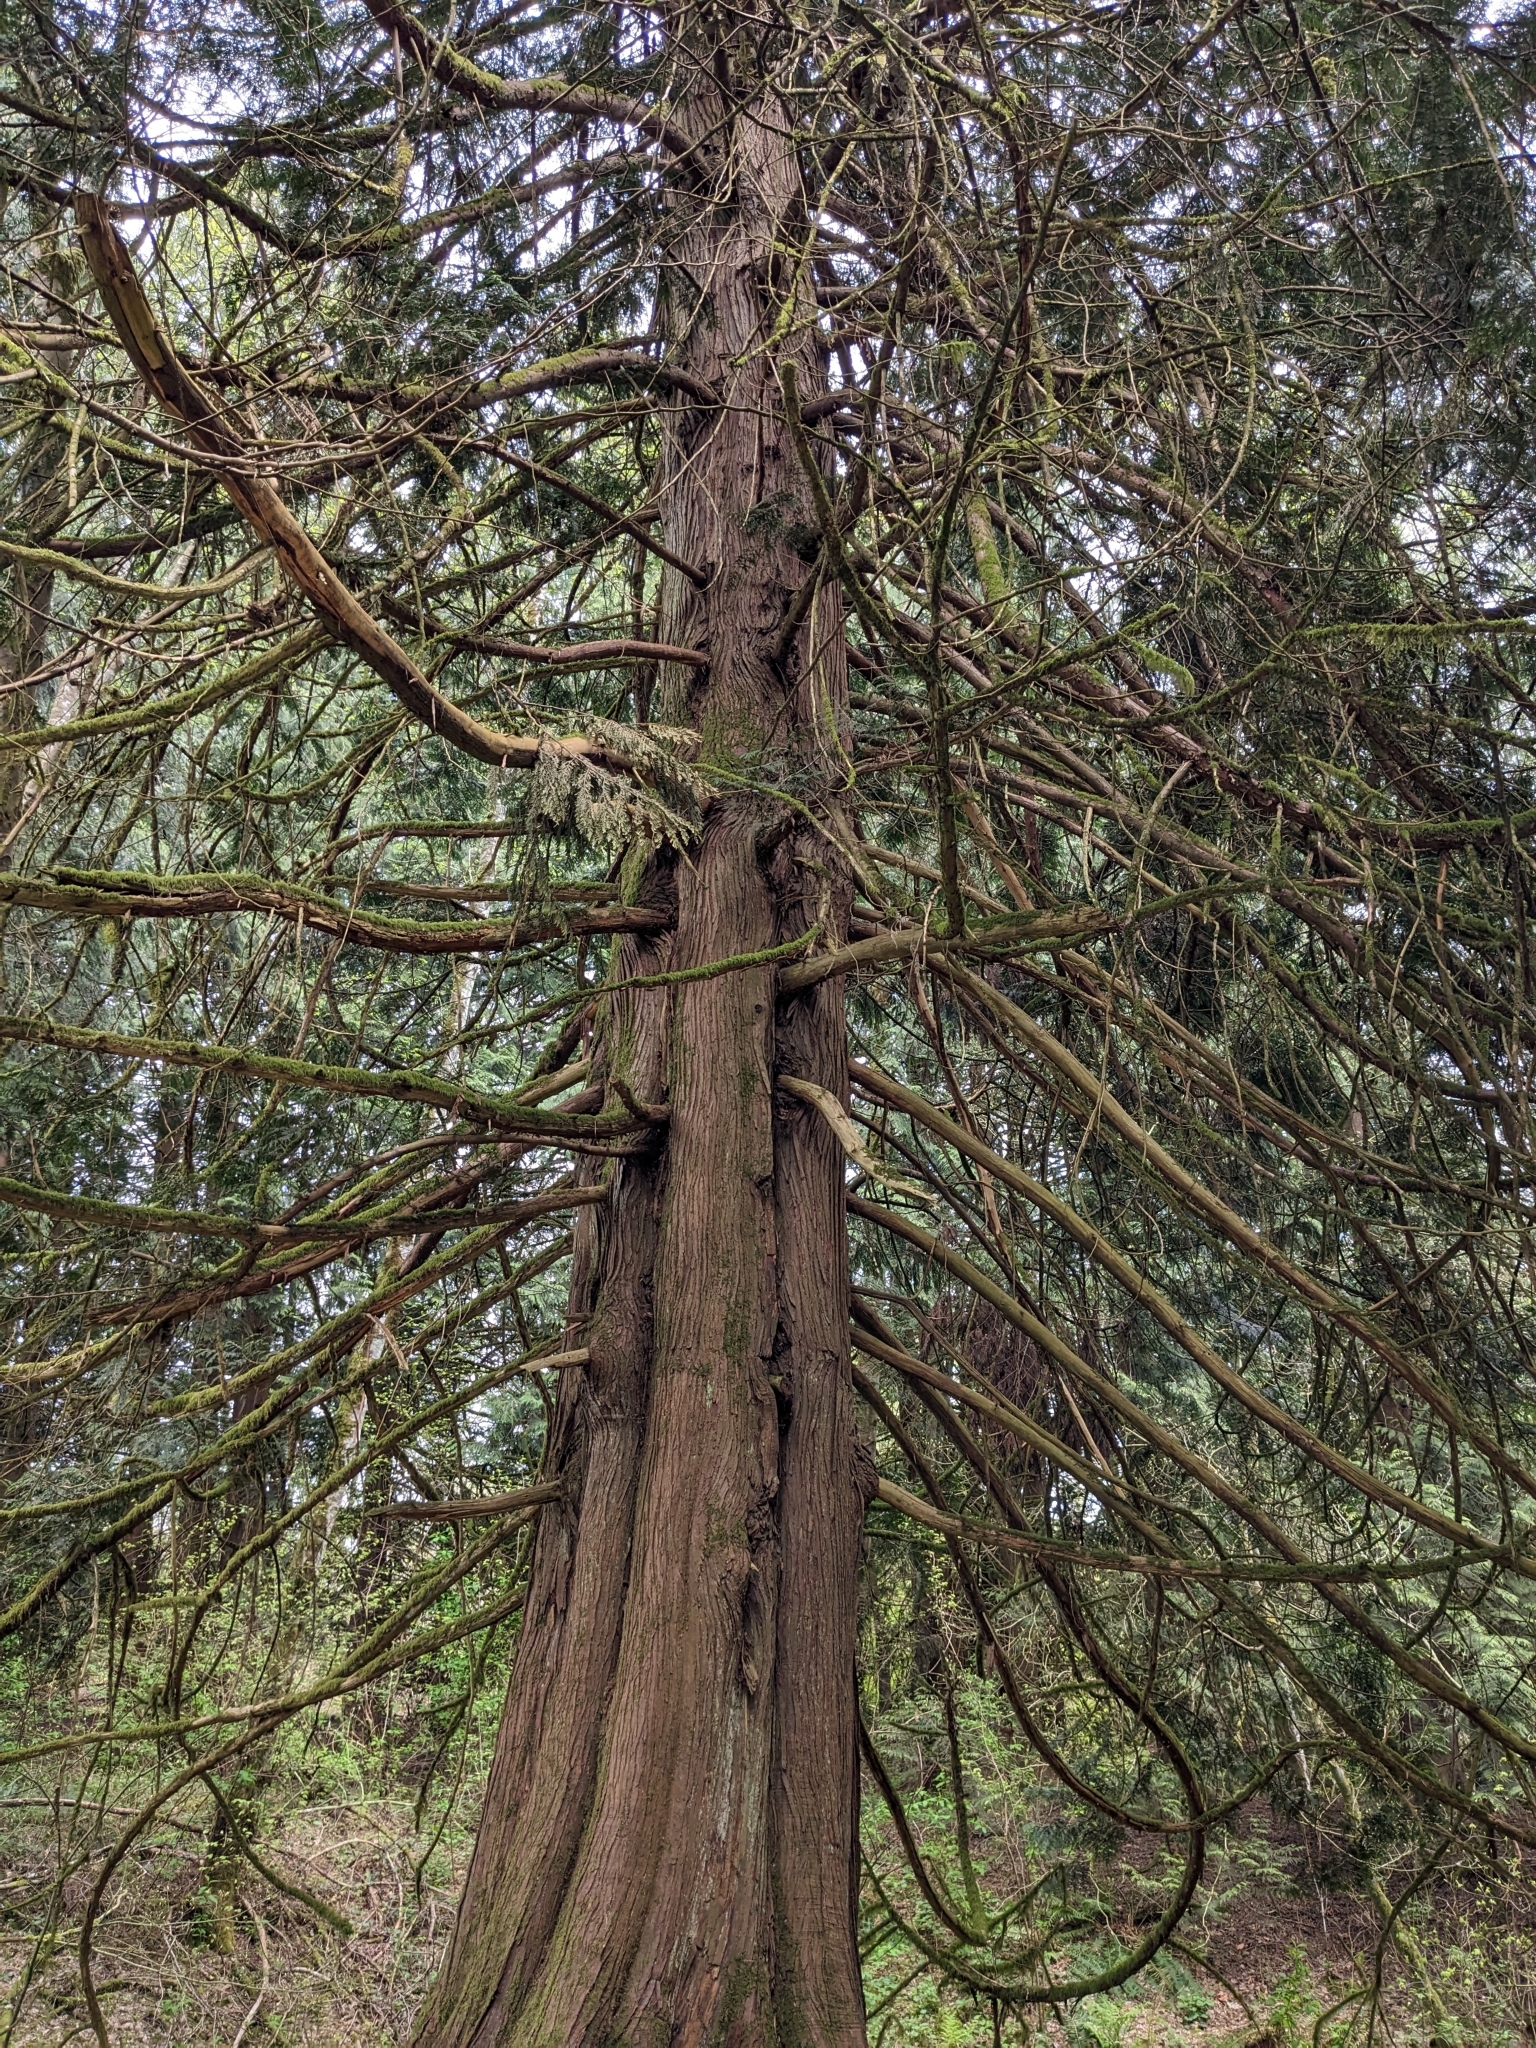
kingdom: Plantae
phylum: Tracheophyta
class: Pinopsida
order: Pinales
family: Cupressaceae
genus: Thuja
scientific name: Thuja plicata
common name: Western red-cedar
